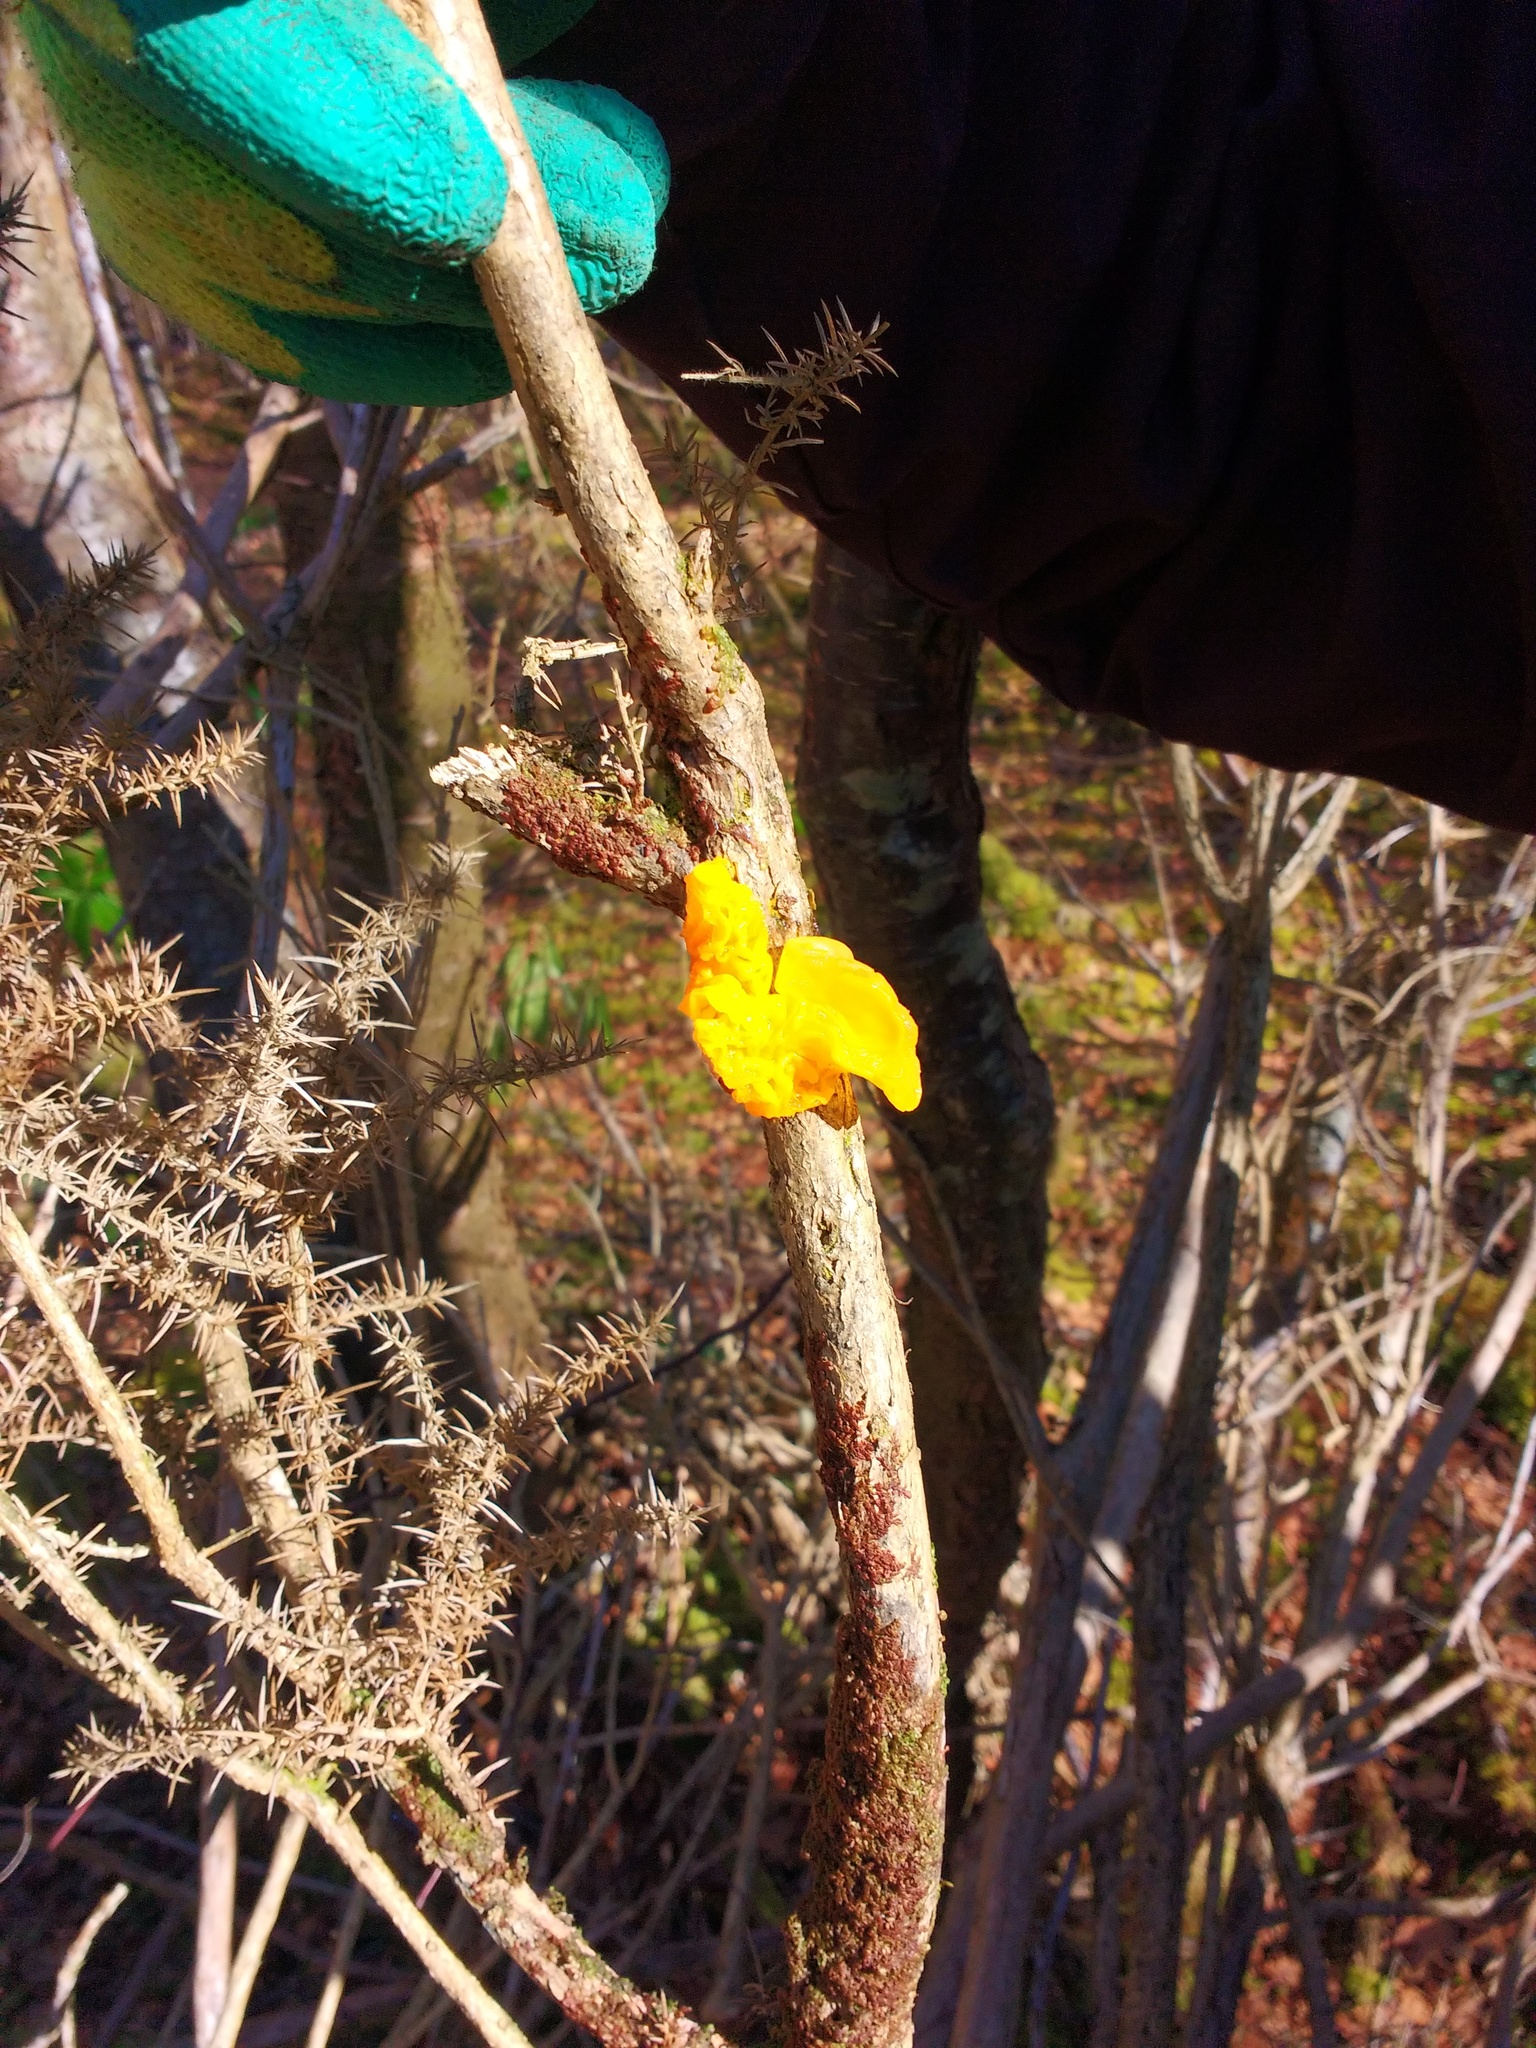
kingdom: Fungi
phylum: Basidiomycota
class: Tremellomycetes
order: Tremellales
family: Tremellaceae
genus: Tremella
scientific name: Tremella mesenterica
